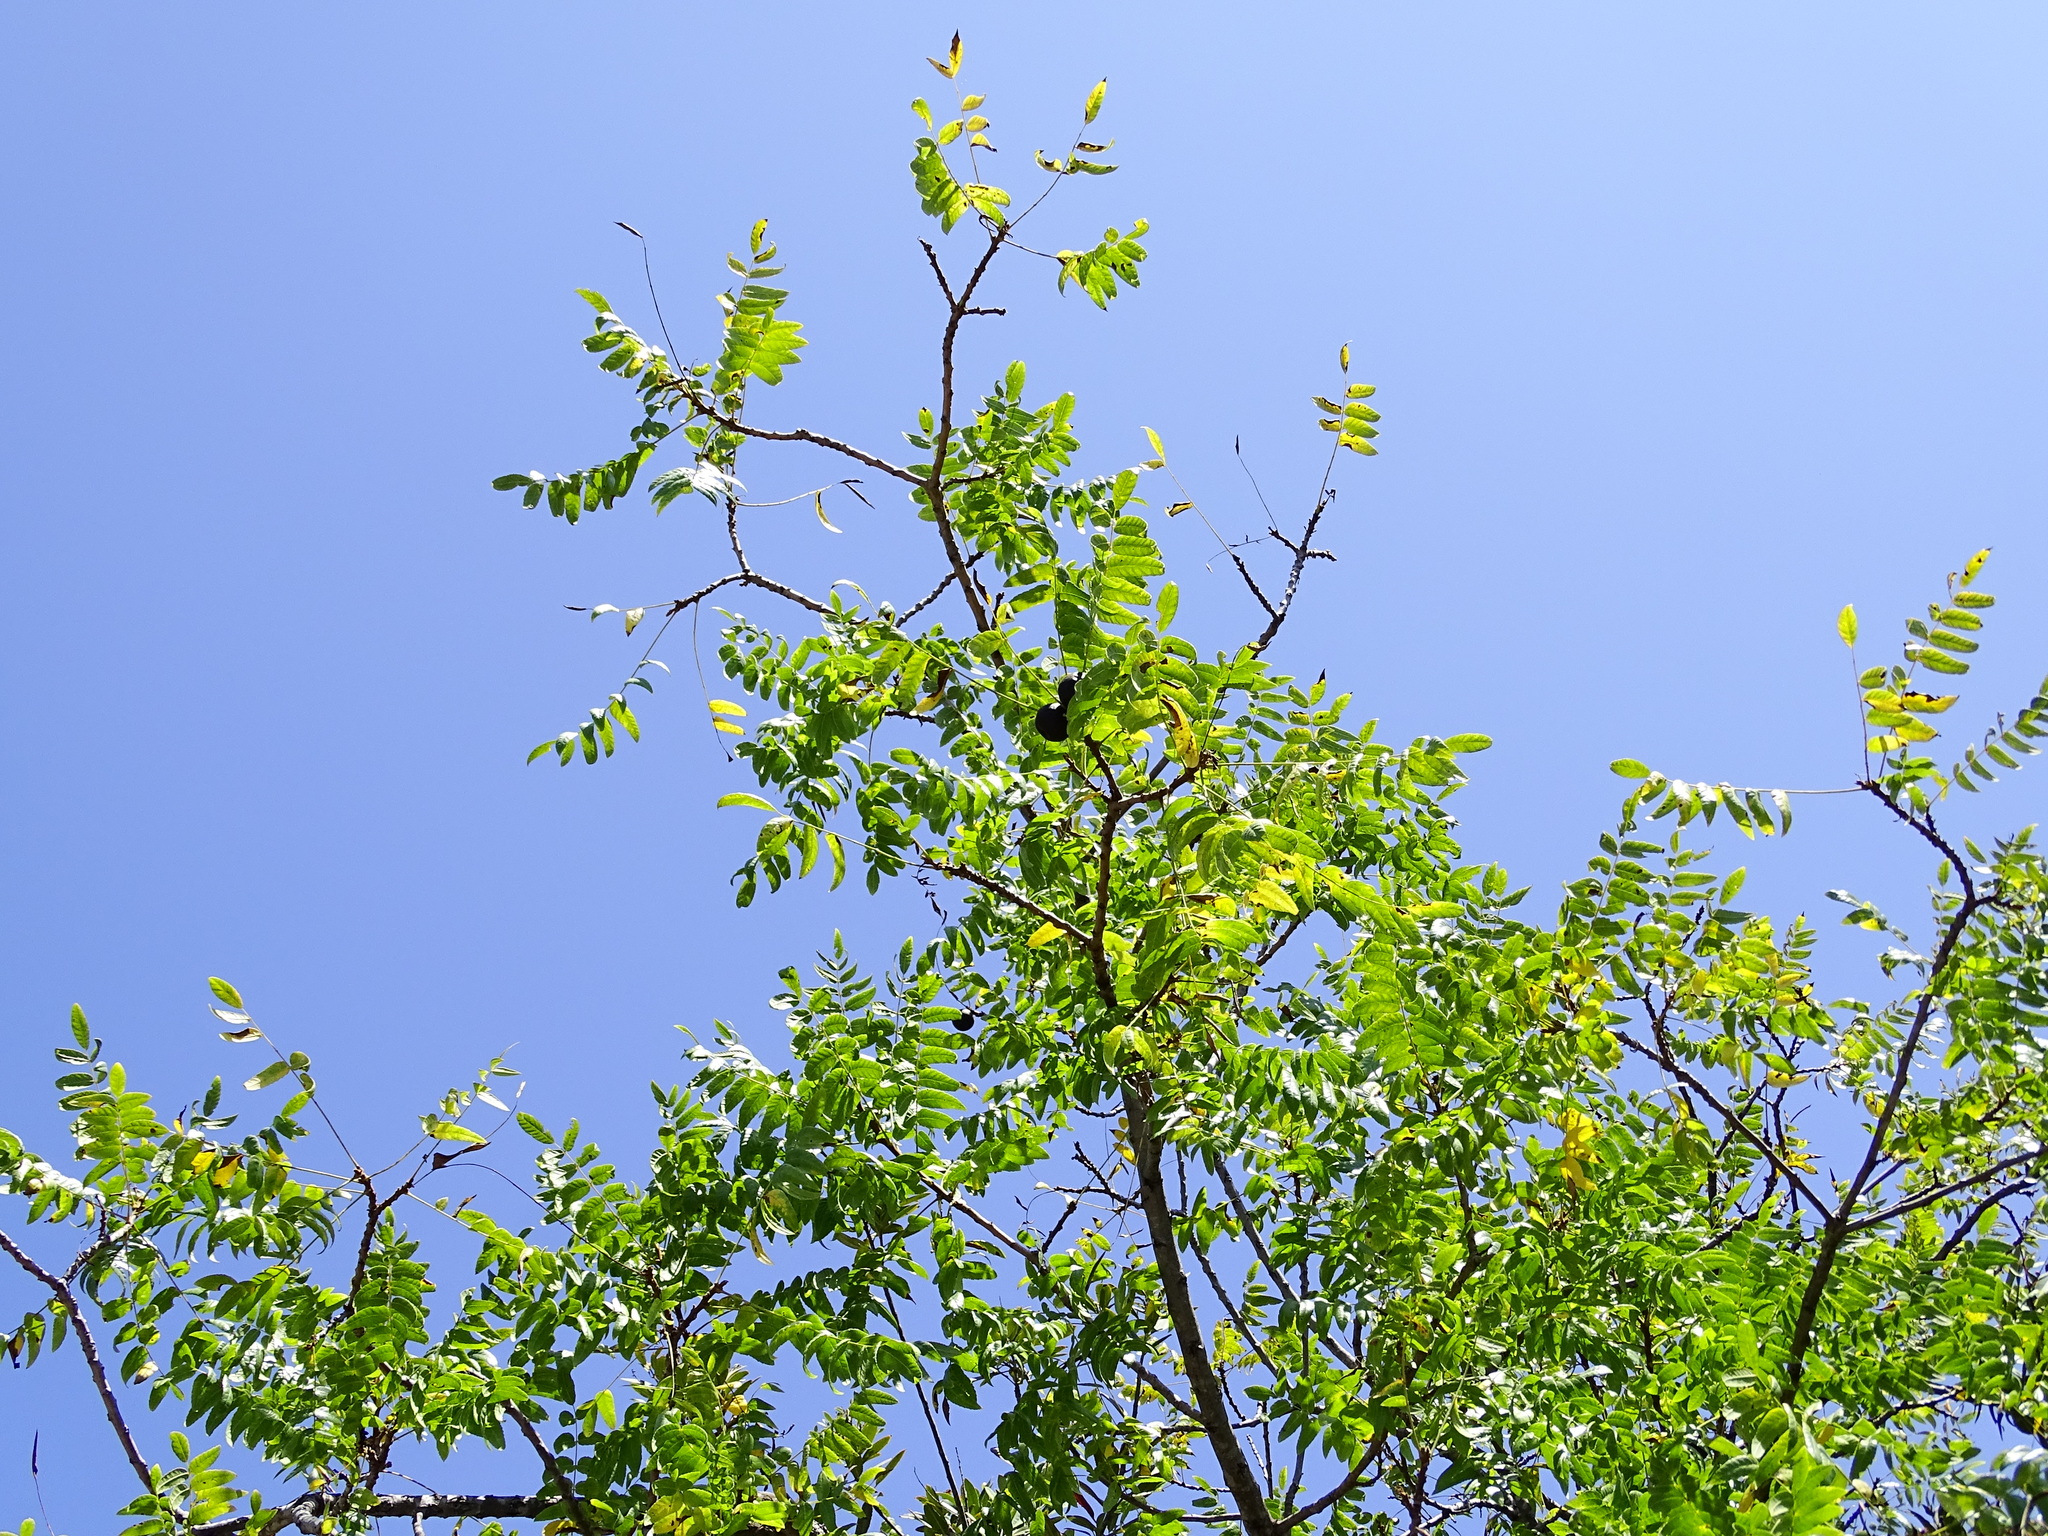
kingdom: Plantae
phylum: Tracheophyta
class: Magnoliopsida
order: Fagales
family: Juglandaceae
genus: Juglans
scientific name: Juglans californica
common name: Southern california black walnut
